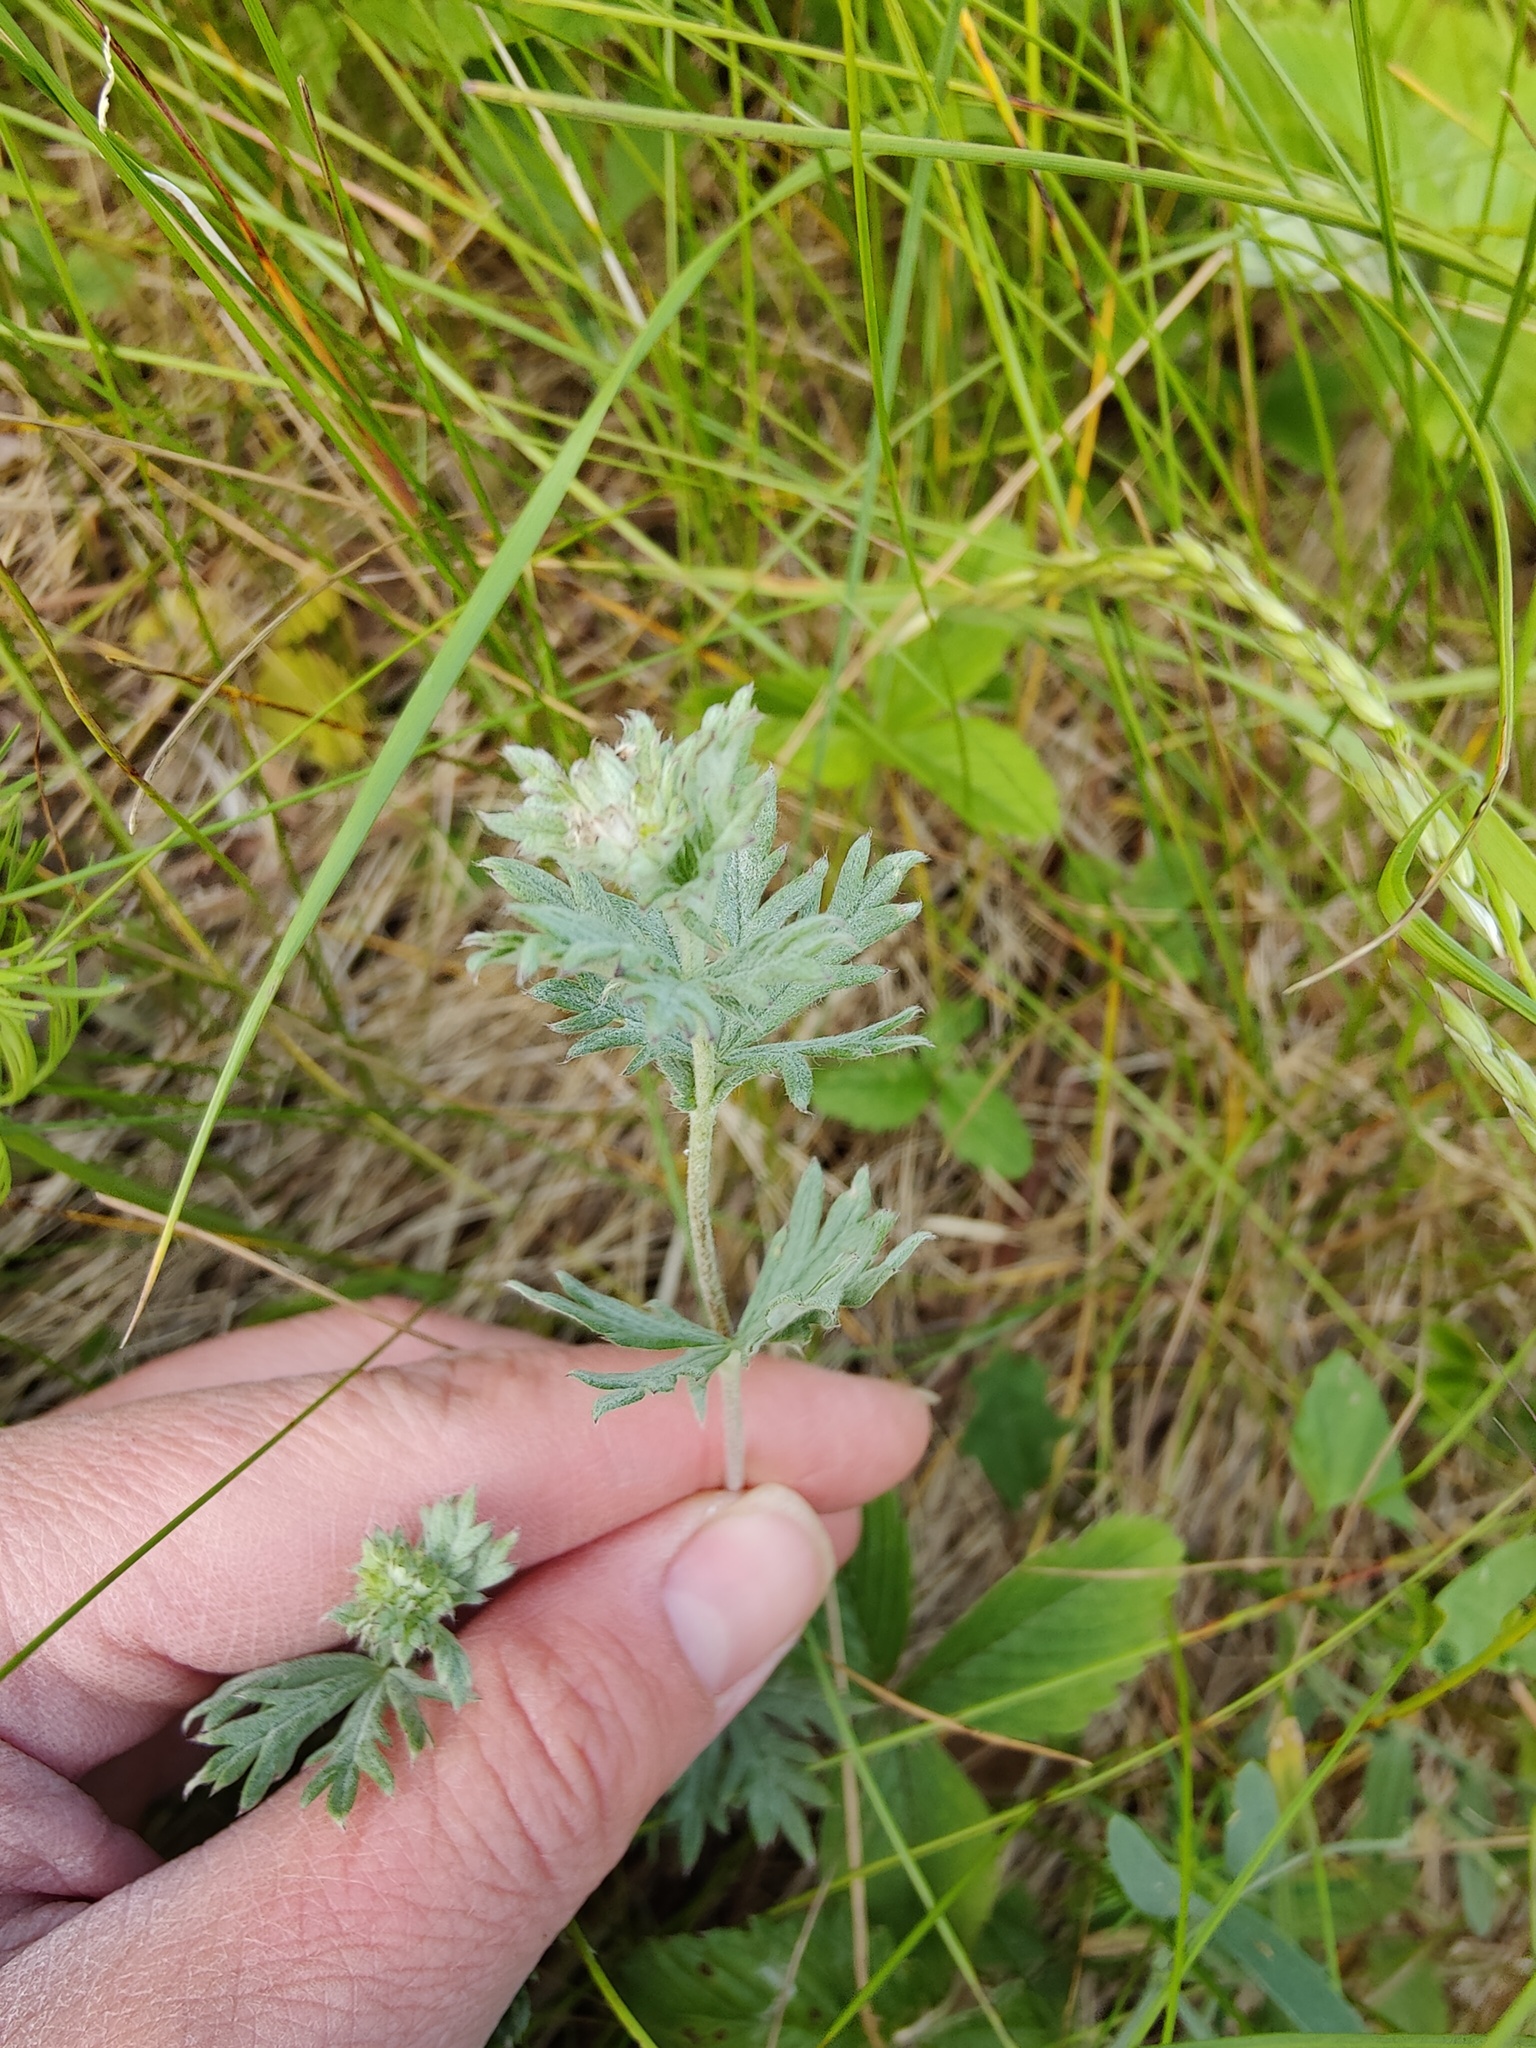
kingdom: Plantae
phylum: Tracheophyta
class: Magnoliopsida
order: Rosales
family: Rosaceae
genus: Potentilla
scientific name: Potentilla argentea
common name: Hoary cinquefoil
